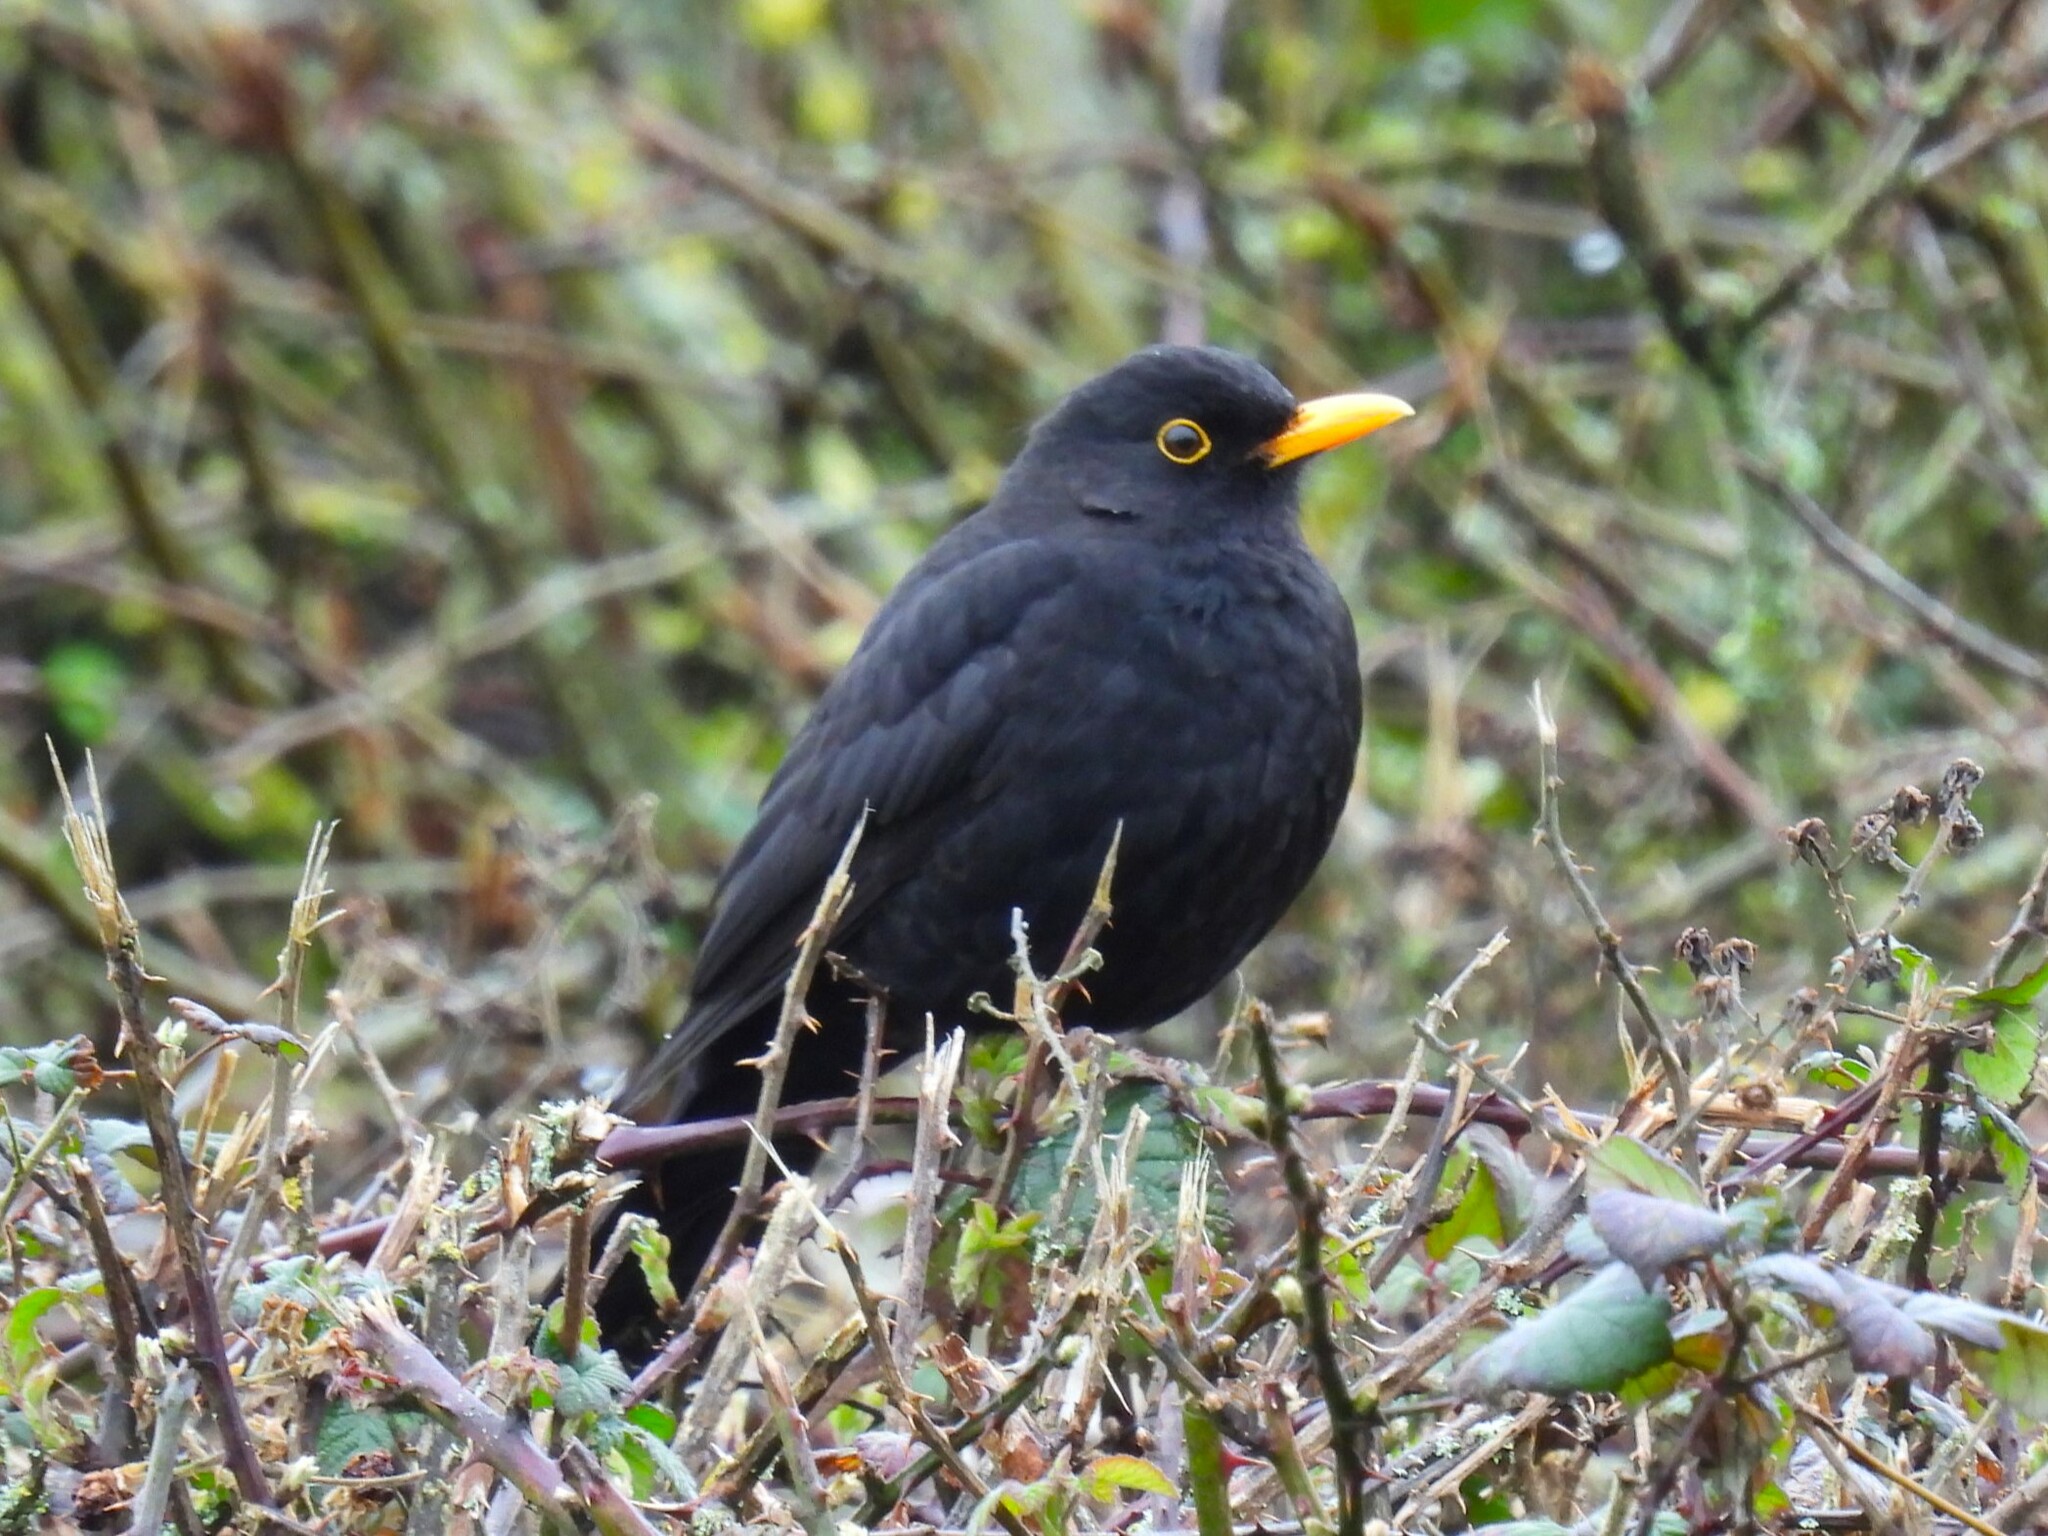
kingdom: Animalia
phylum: Chordata
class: Aves
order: Passeriformes
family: Turdidae
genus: Turdus
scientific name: Turdus merula
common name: Common blackbird
